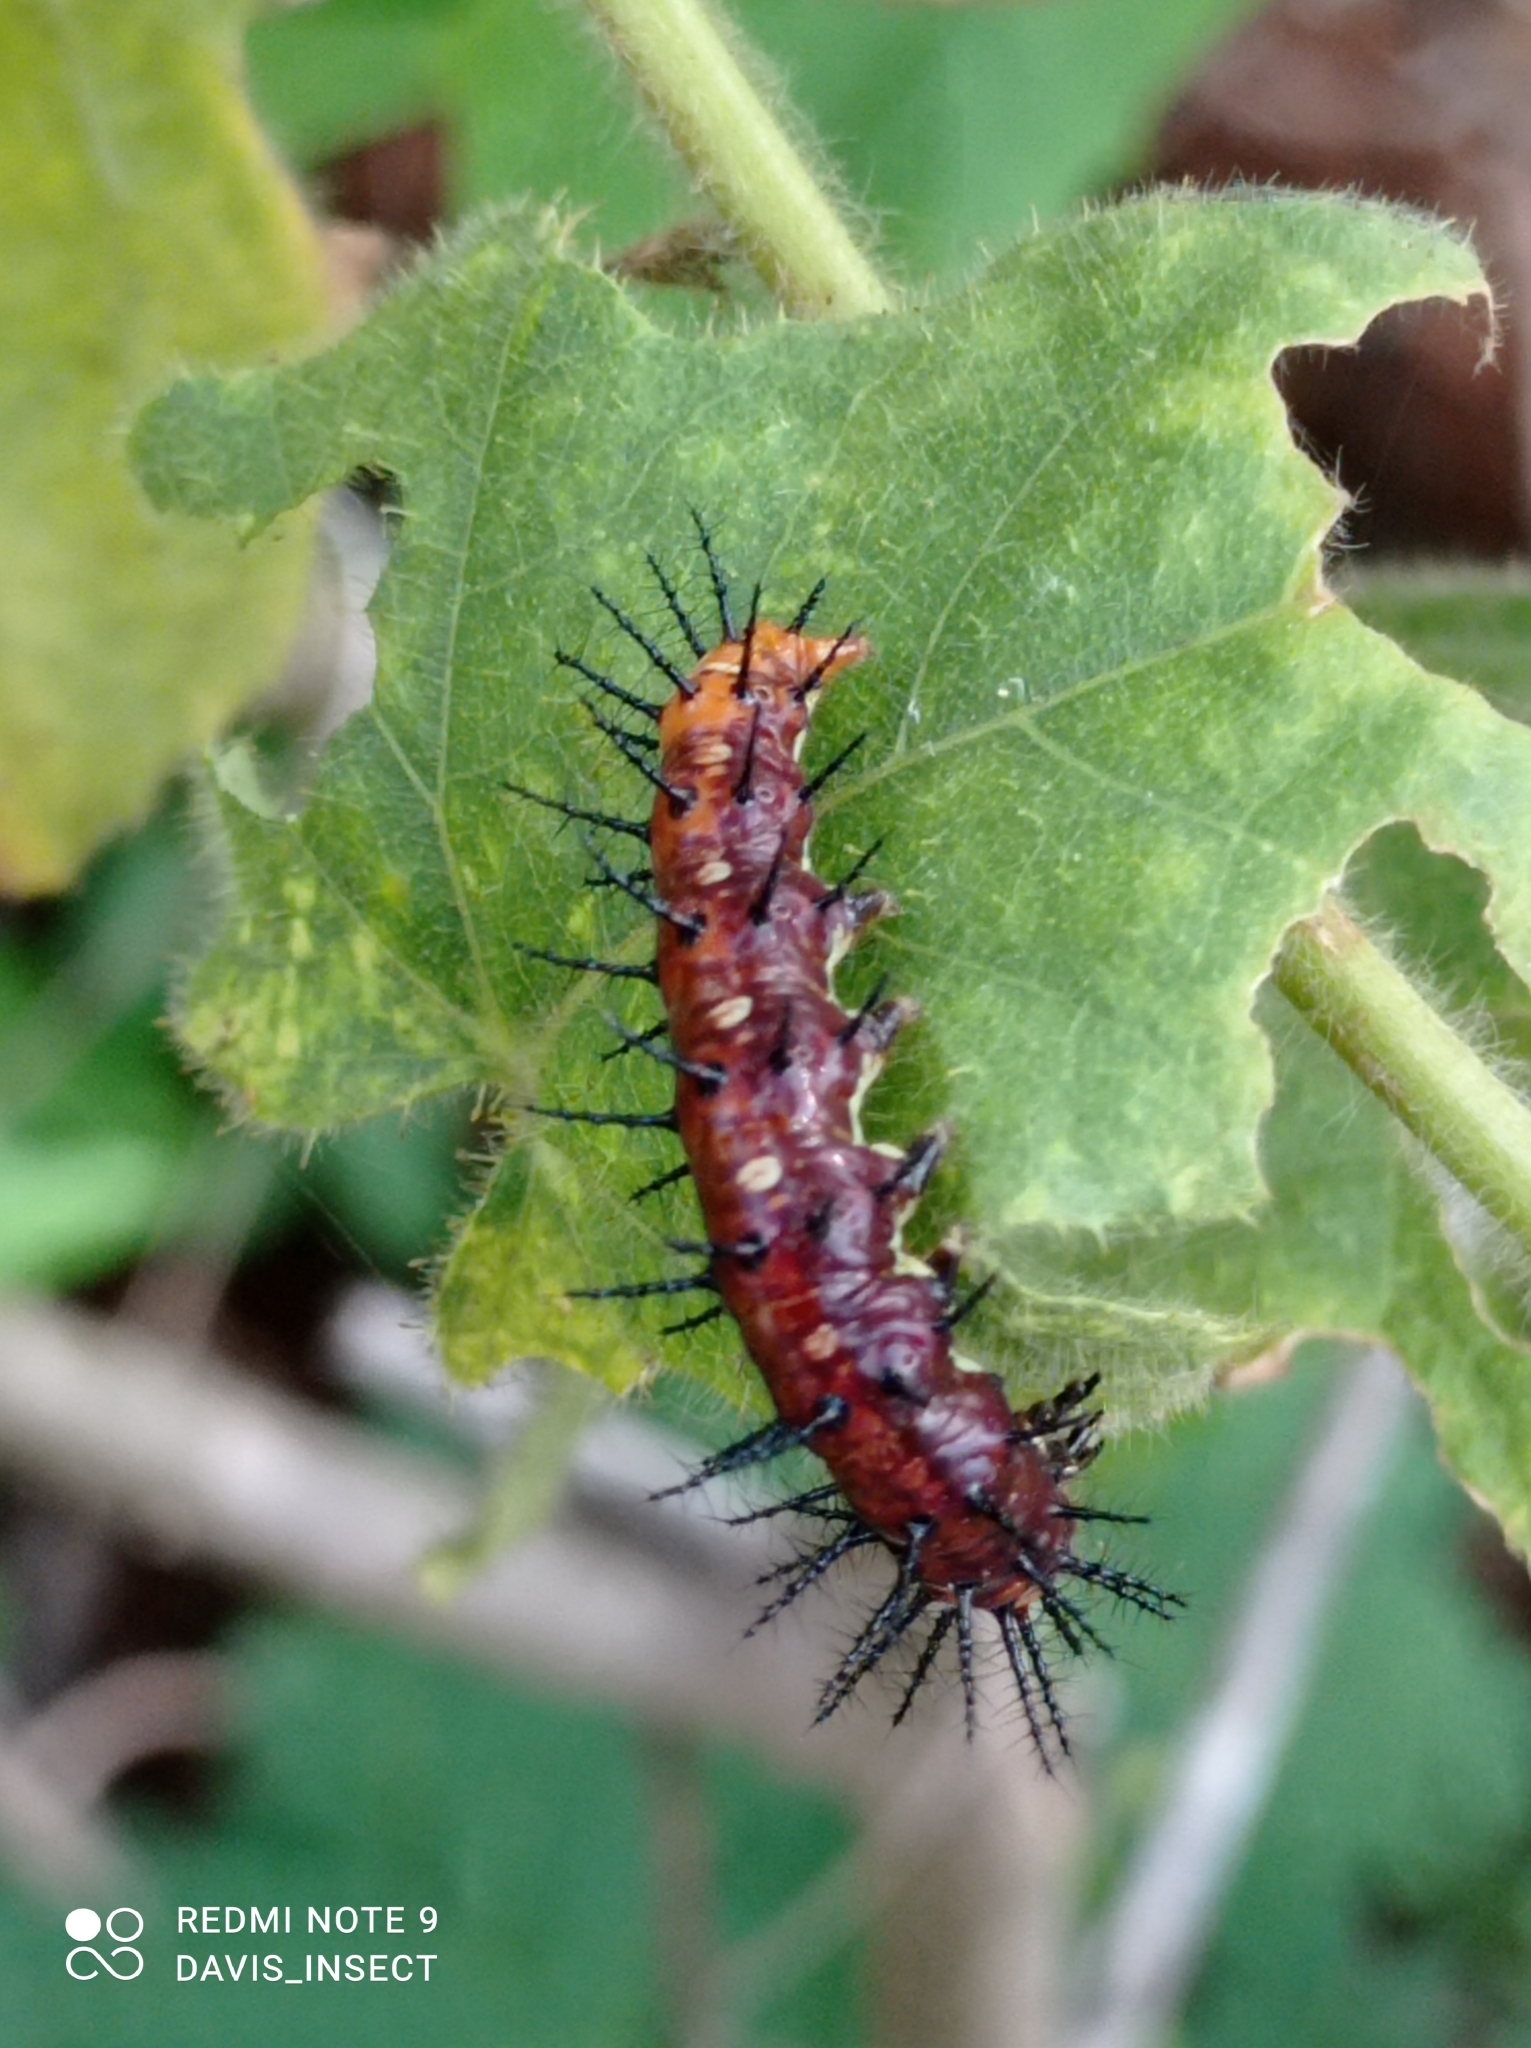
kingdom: Animalia
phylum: Arthropoda
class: Insecta
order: Lepidoptera
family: Nymphalidae
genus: Acraea
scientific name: Acraea terpsicore
